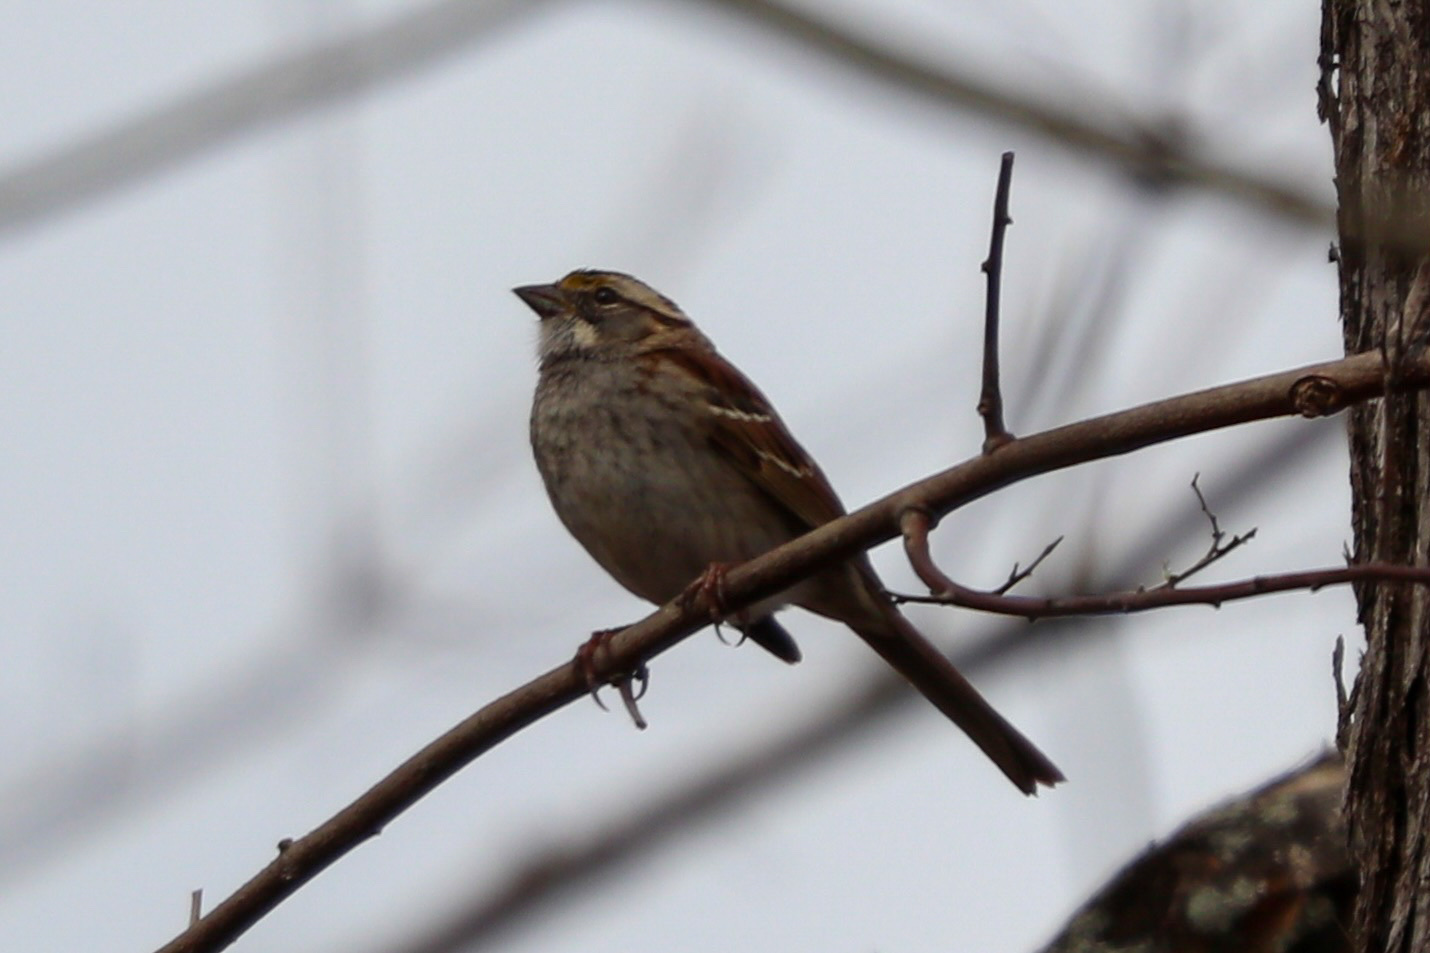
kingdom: Animalia
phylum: Chordata
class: Aves
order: Passeriformes
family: Passerellidae
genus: Zonotrichia
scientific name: Zonotrichia albicollis
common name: White-throated sparrow
